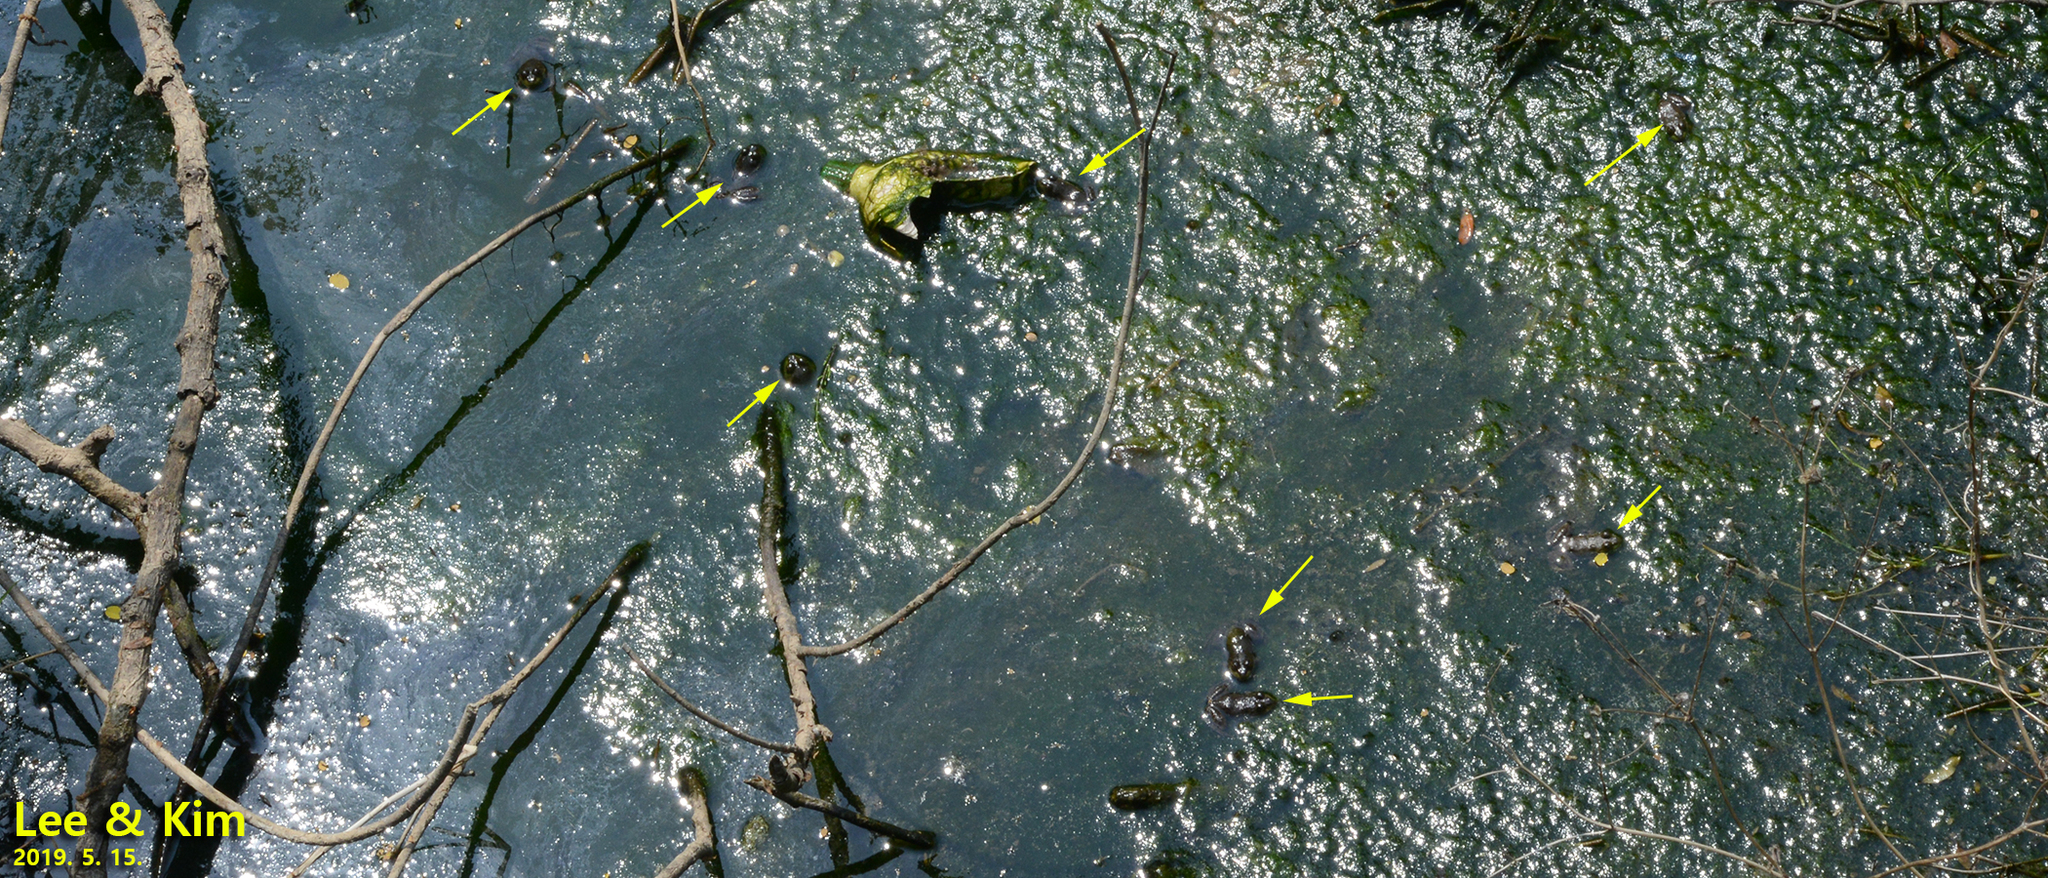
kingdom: Animalia
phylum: Chordata
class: Amphibia
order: Anura
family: Ranidae
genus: Lithobates
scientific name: Lithobates catesbeianus
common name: American bullfrog
